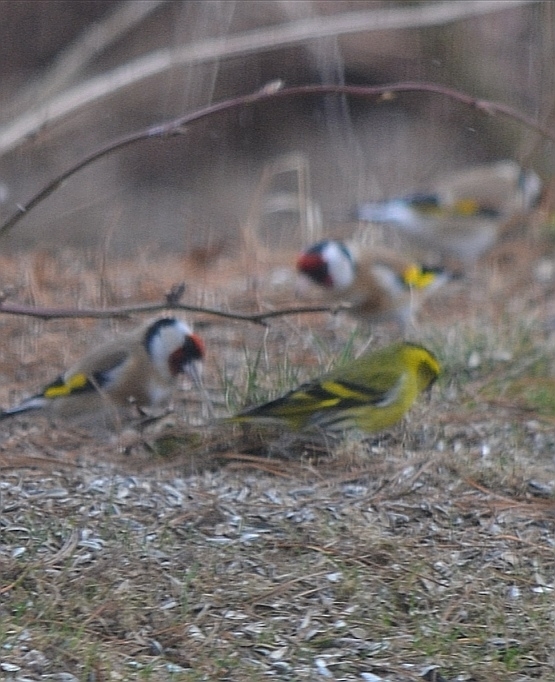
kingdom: Animalia
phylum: Chordata
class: Aves
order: Passeriformes
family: Fringillidae
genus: Spinus
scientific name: Spinus spinus
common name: Eurasian siskin
